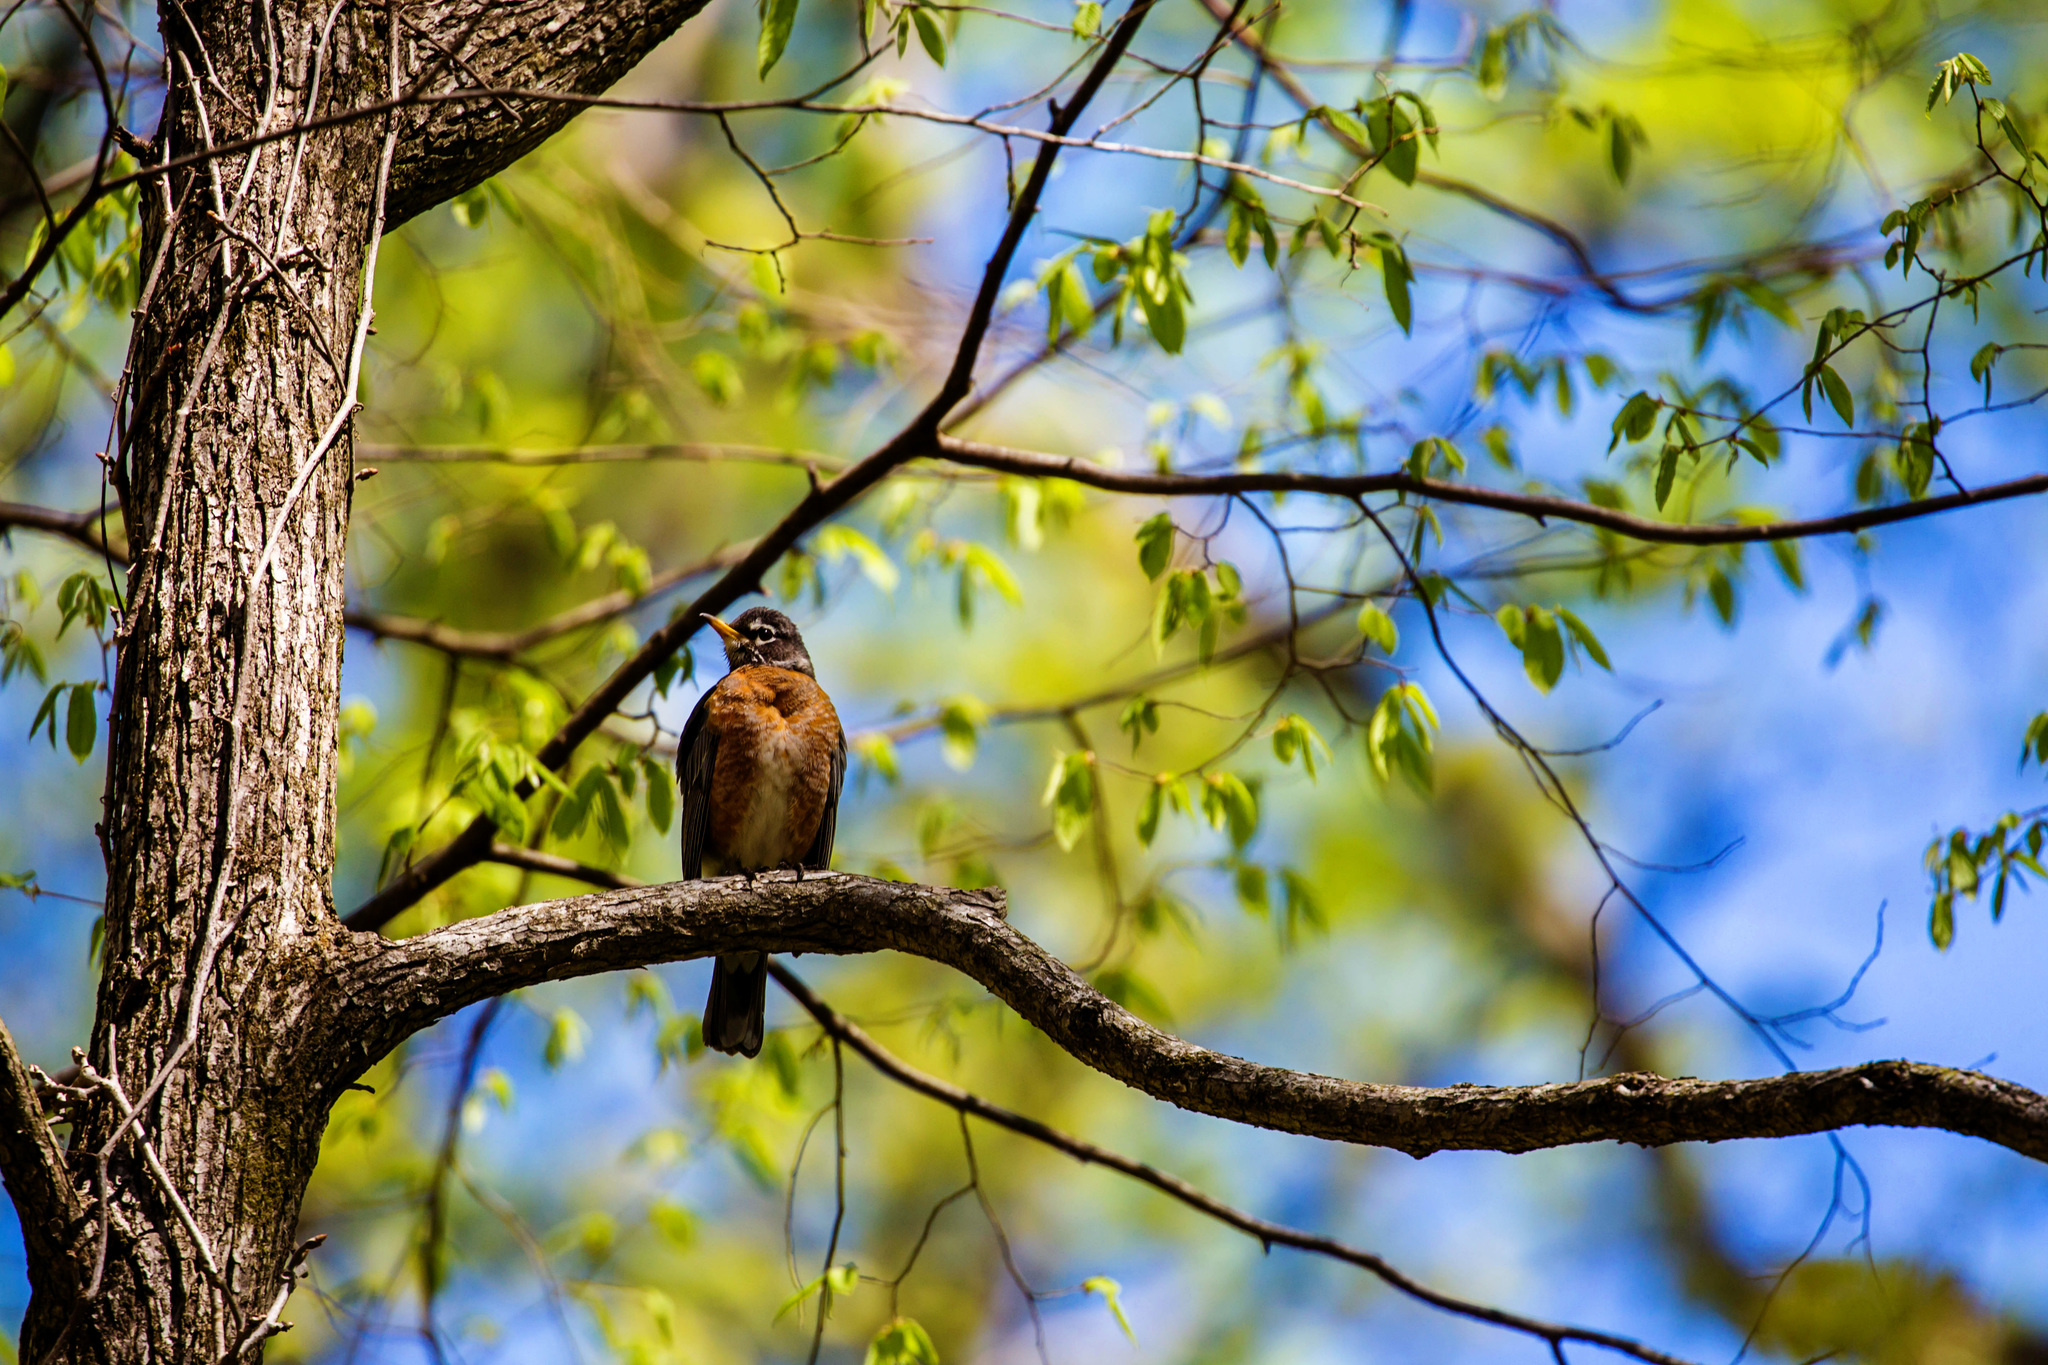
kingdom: Animalia
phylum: Chordata
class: Aves
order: Passeriformes
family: Turdidae
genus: Turdus
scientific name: Turdus migratorius
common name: American robin
